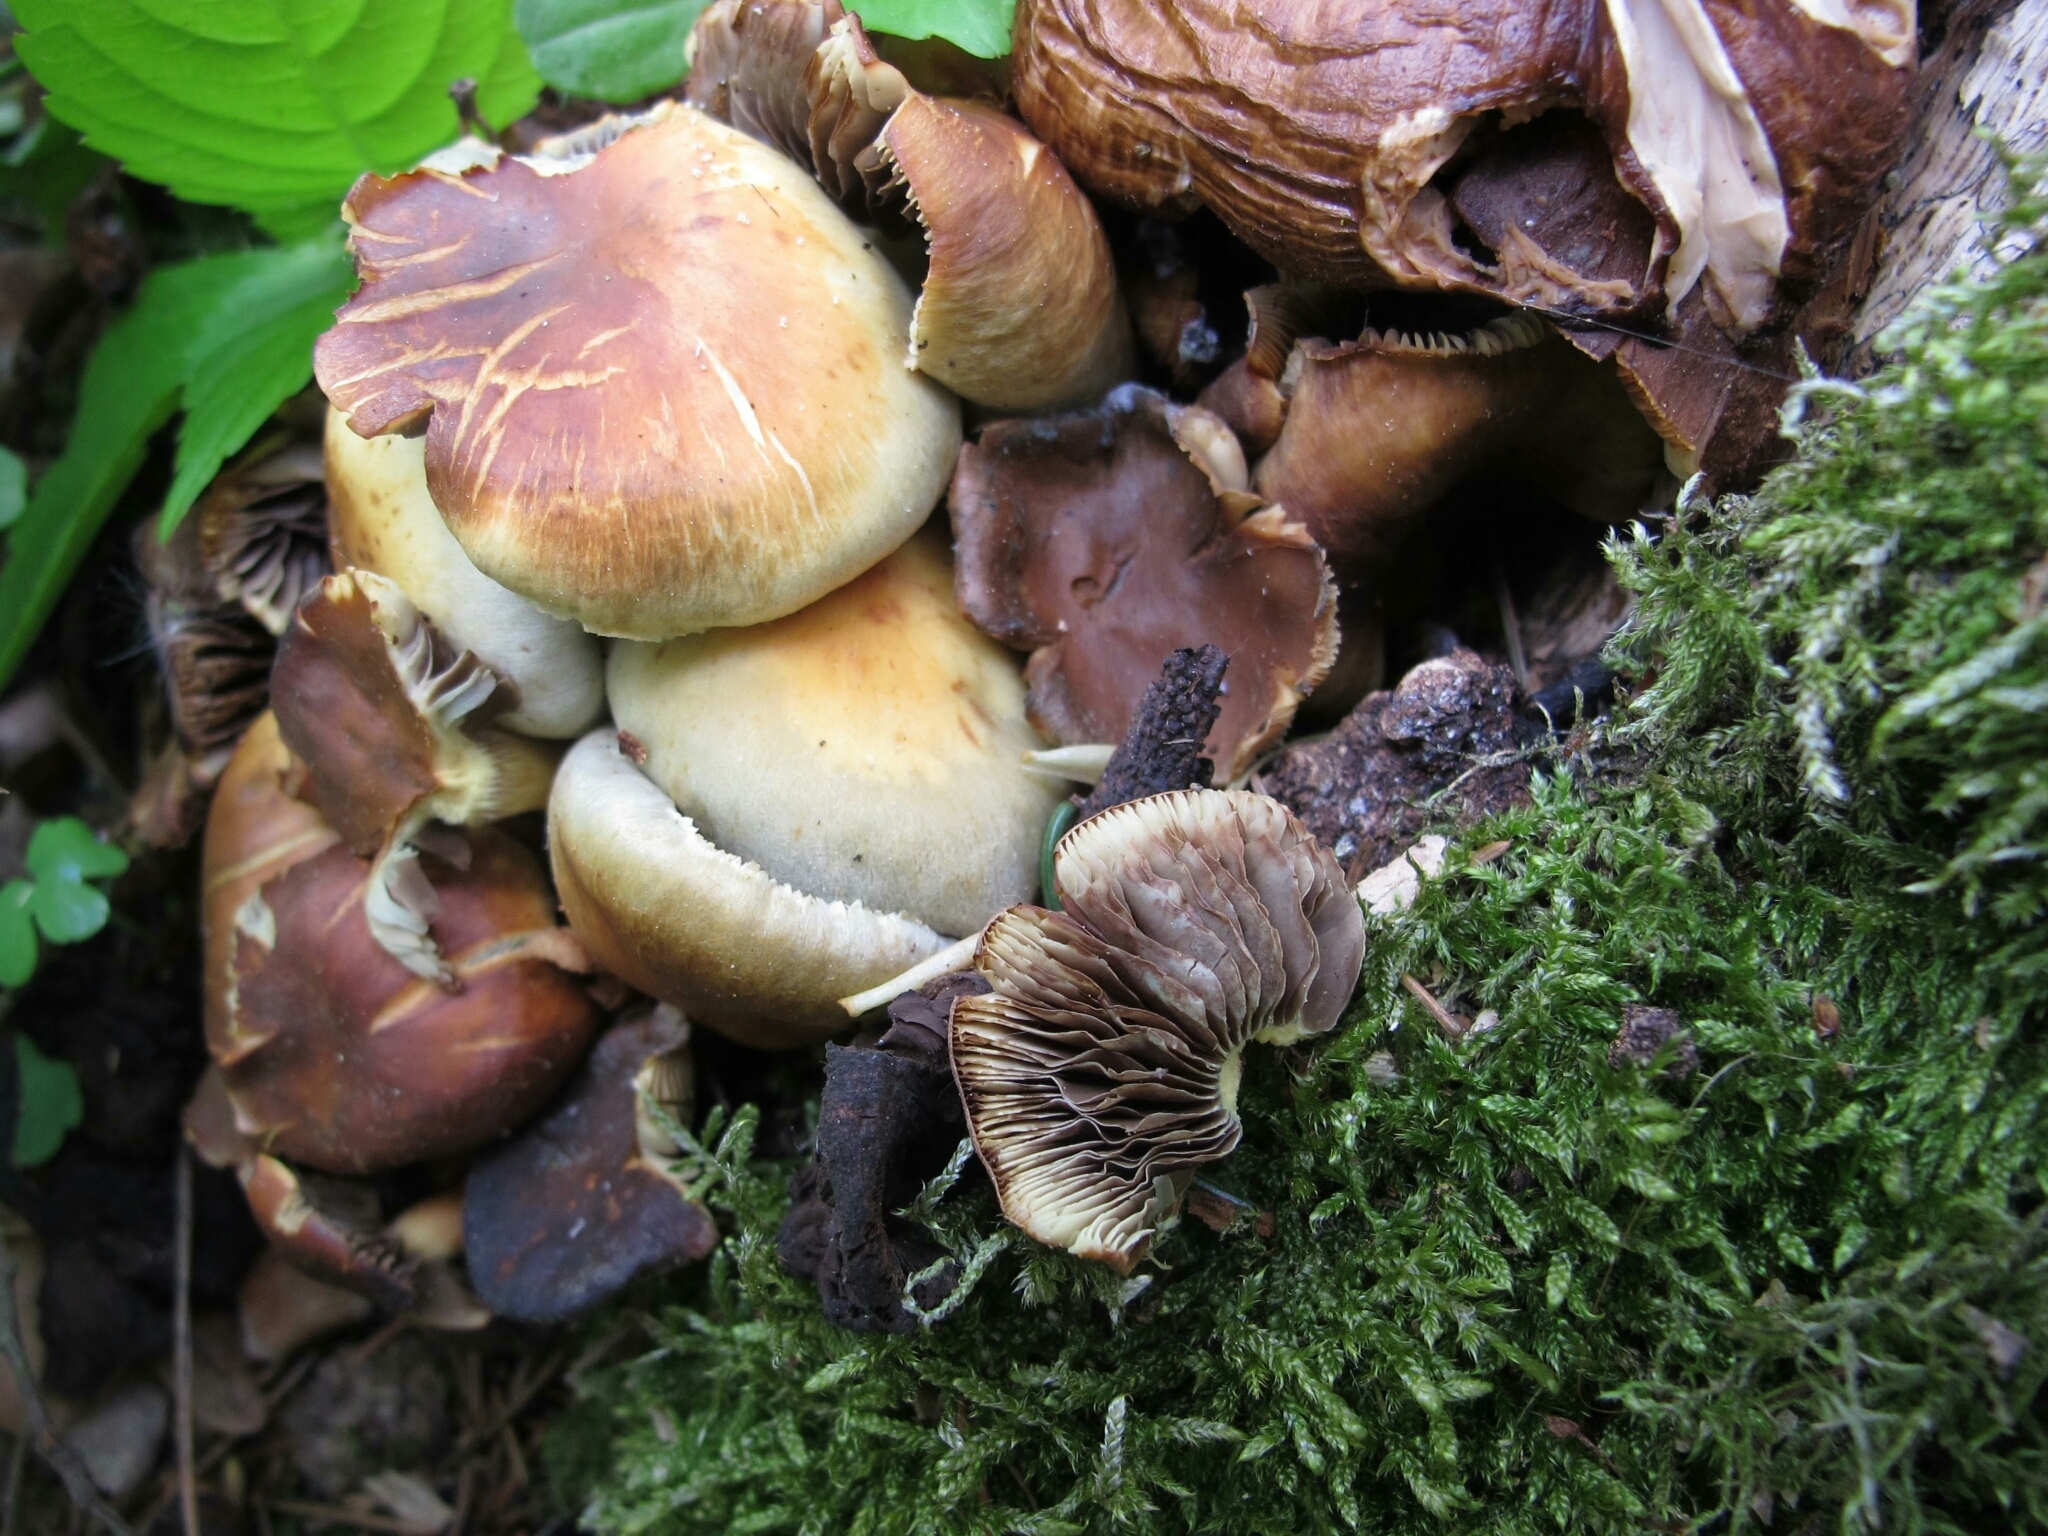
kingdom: Fungi
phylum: Basidiomycota
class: Agaricomycetes
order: Agaricales
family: Strophariaceae
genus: Hypholoma
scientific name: Hypholoma fasciculare
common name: Sulphur tuft
